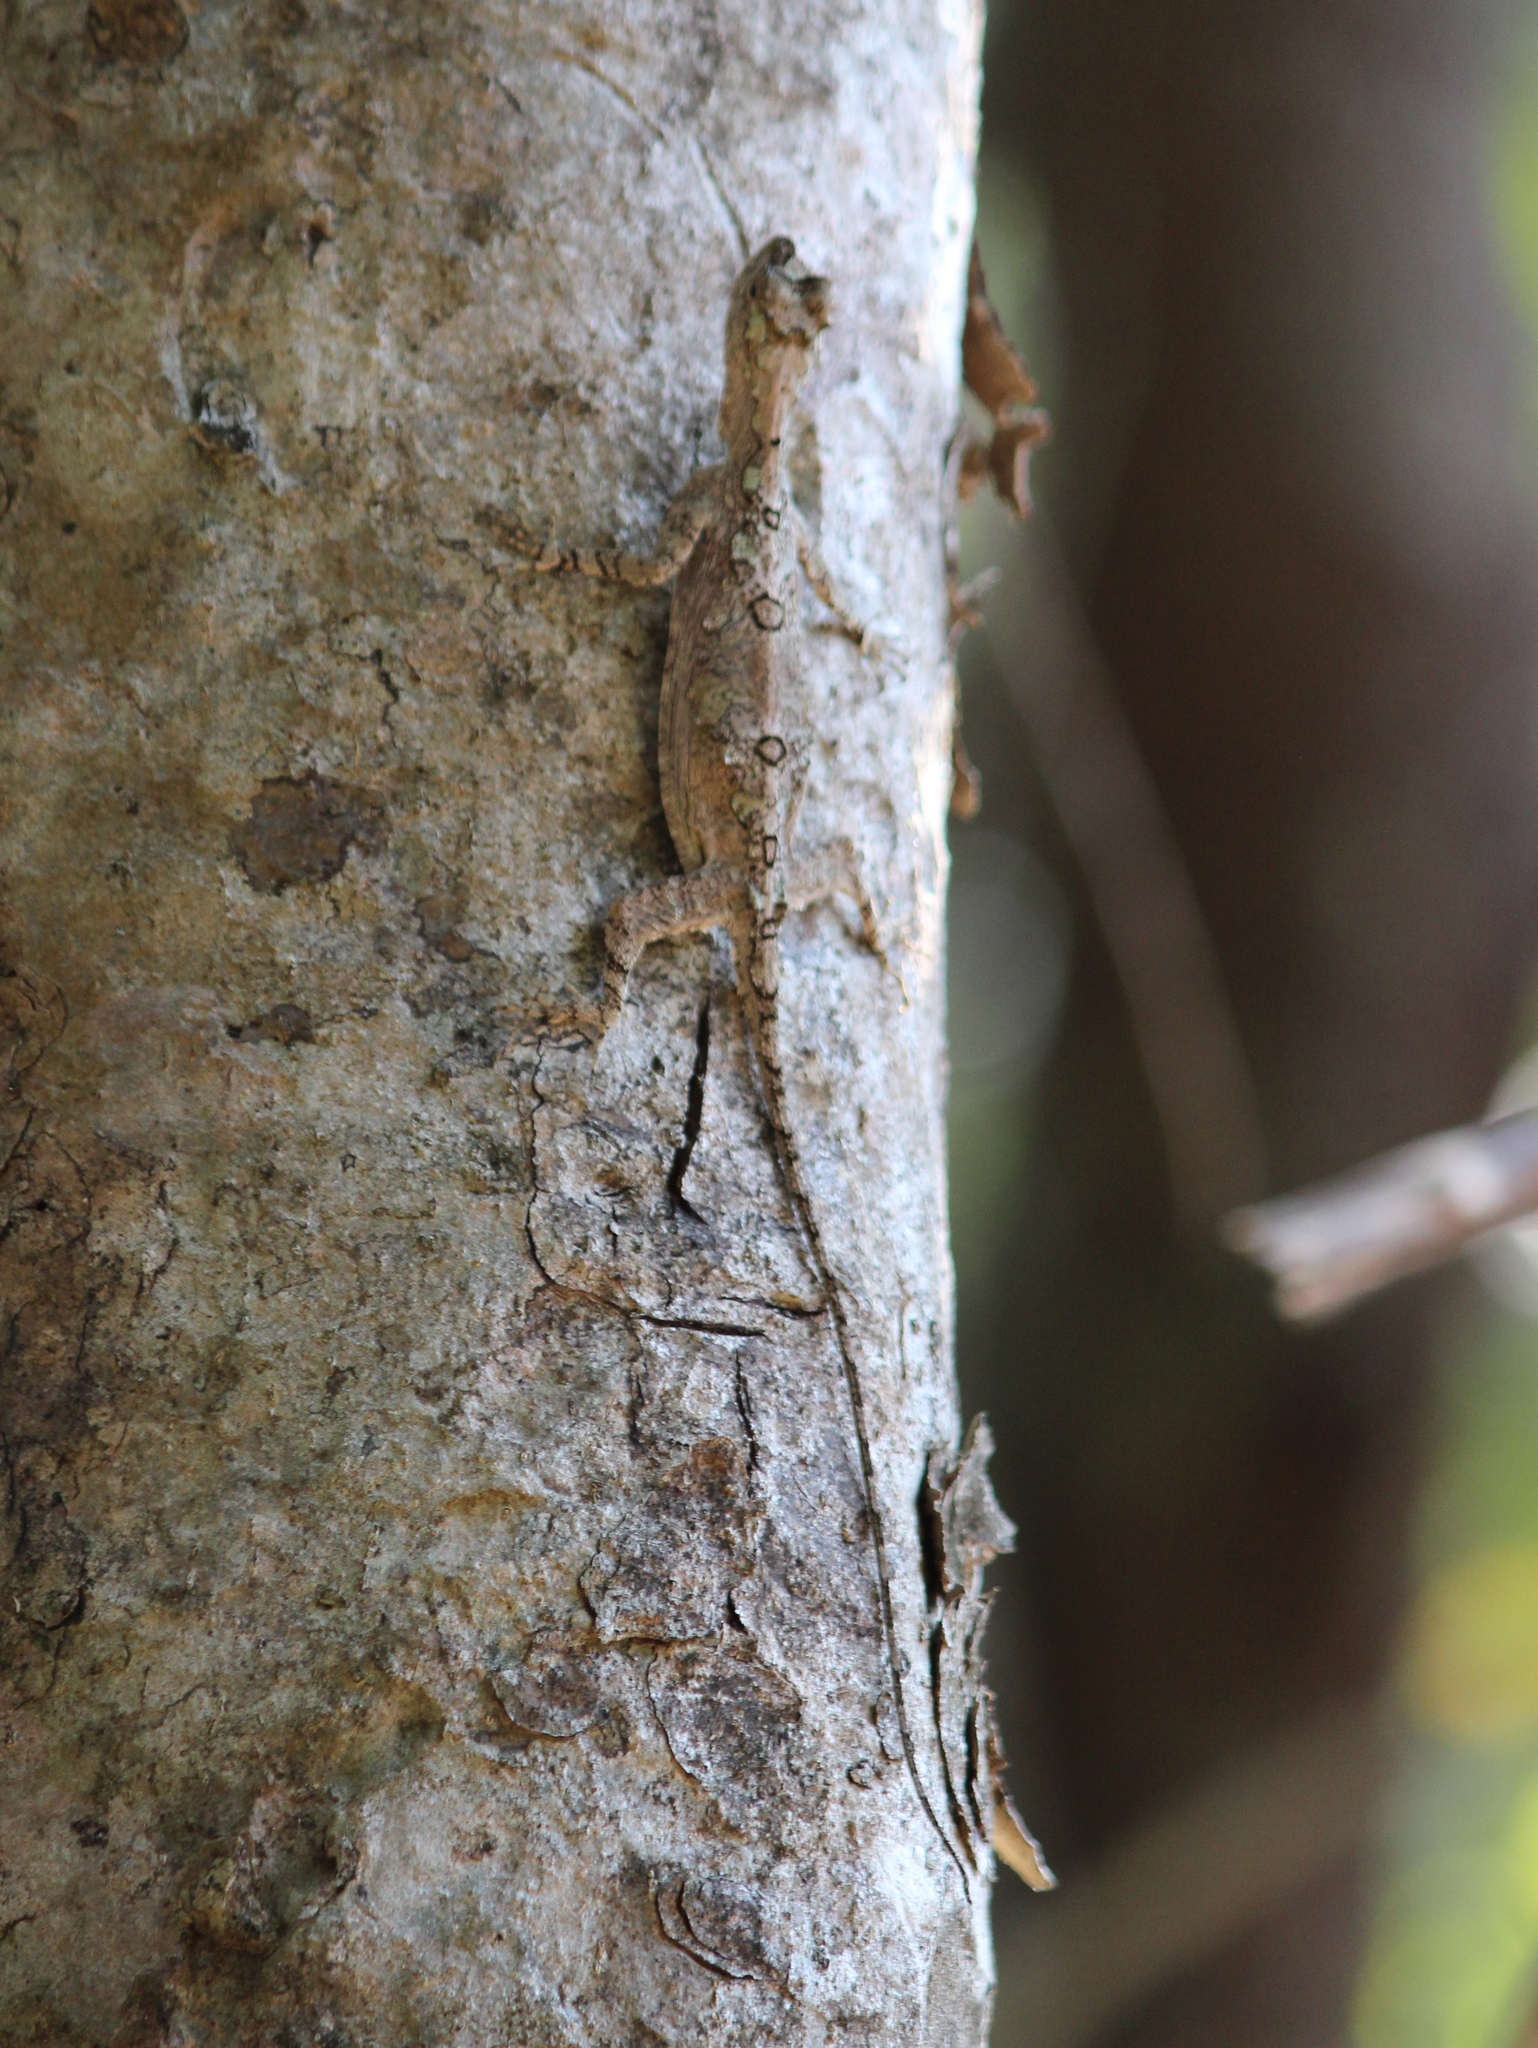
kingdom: Animalia
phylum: Chordata
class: Squamata
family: Agamidae
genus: Draco
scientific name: Draco dussumieri
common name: Southern flying lizard
